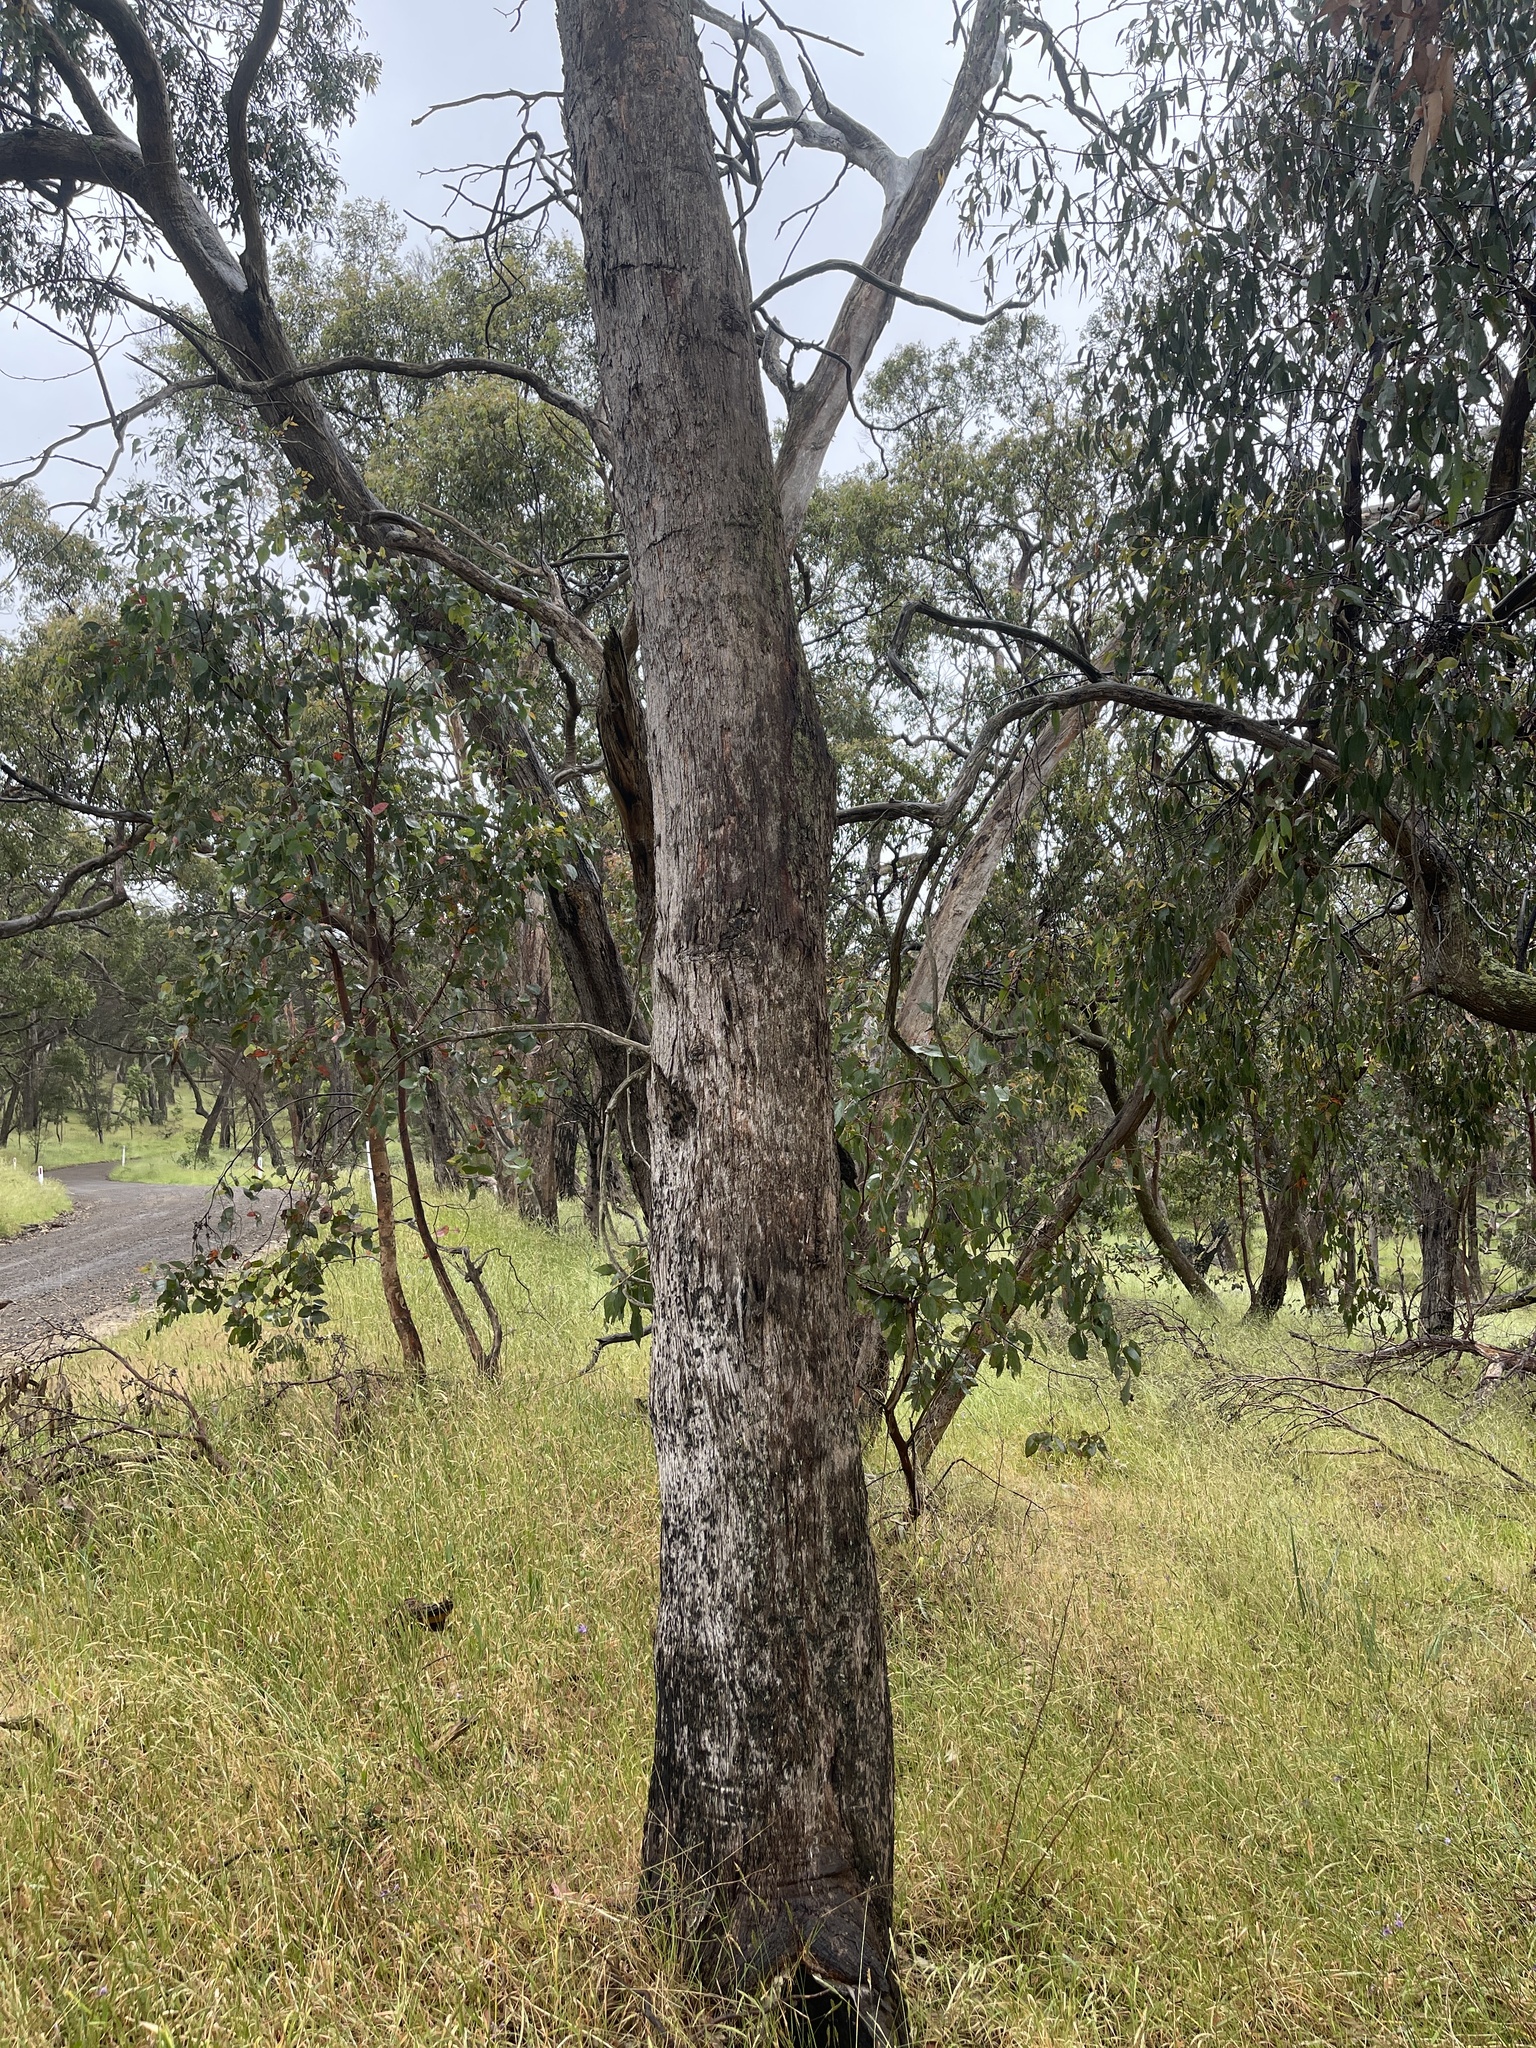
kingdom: Plantae
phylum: Tracheophyta
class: Magnoliopsida
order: Myrtales
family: Myrtaceae
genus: Eucalyptus
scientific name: Eucalyptus dives
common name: Blue peppermint
